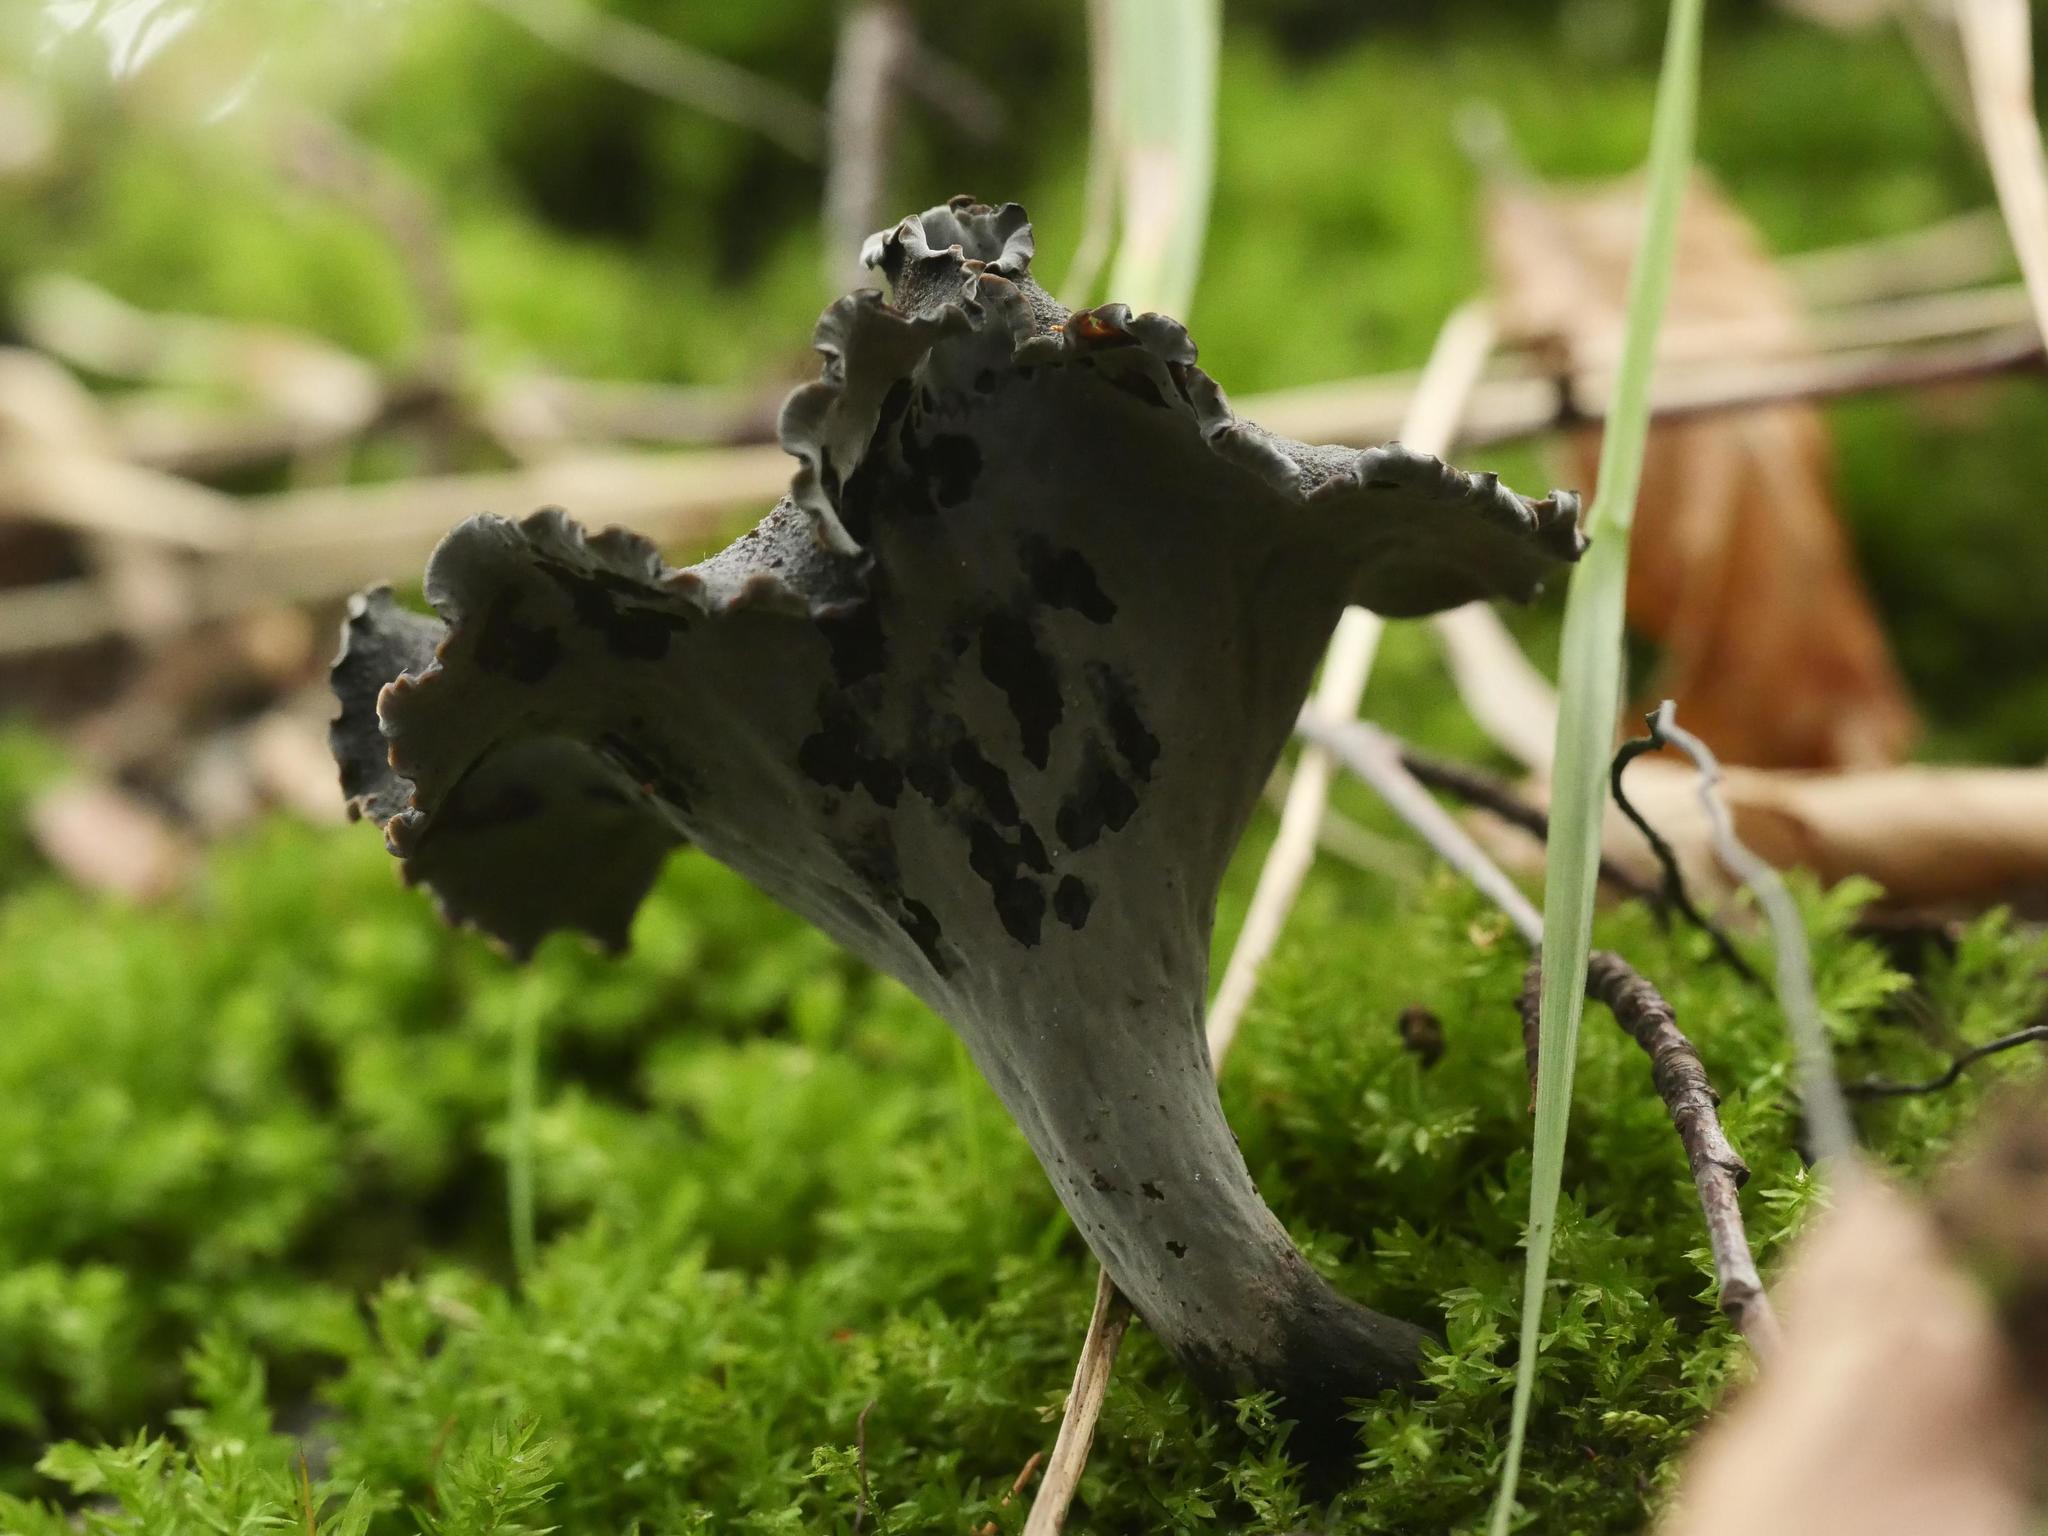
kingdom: Fungi
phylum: Basidiomycota
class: Agaricomycetes
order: Cantharellales
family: Hydnaceae
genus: Craterellus
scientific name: Craterellus cornucopioides
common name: Horn of plenty
